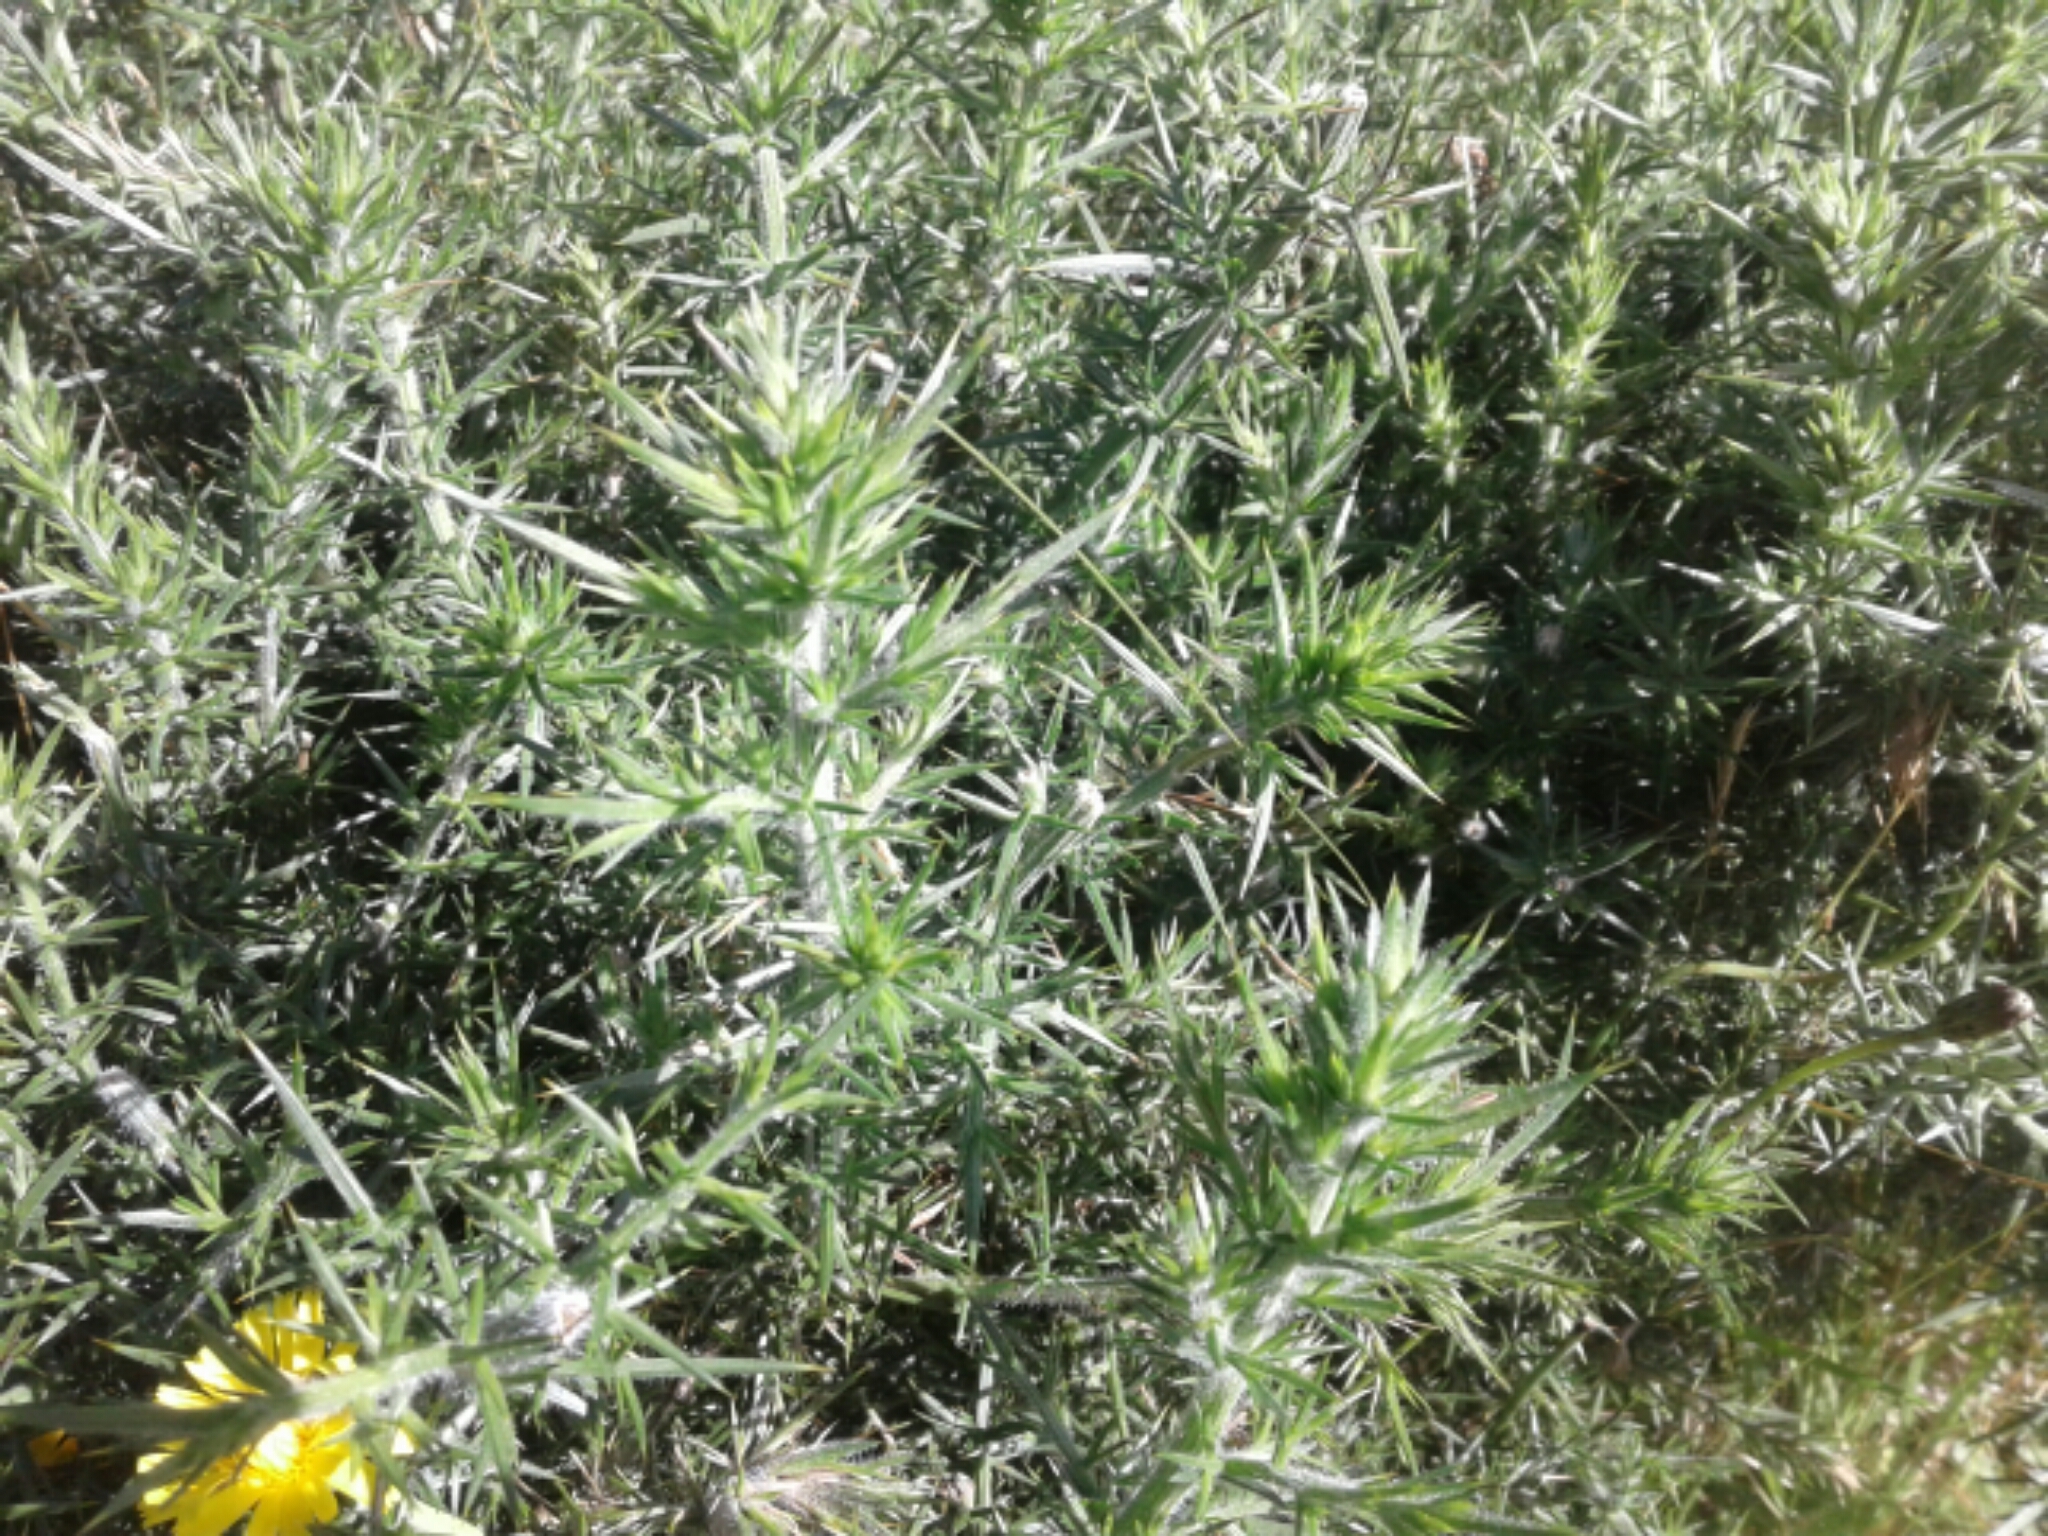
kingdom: Plantae
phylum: Tracheophyta
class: Magnoliopsida
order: Fabales
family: Fabaceae
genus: Ulex
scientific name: Ulex europaeus
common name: Common gorse
